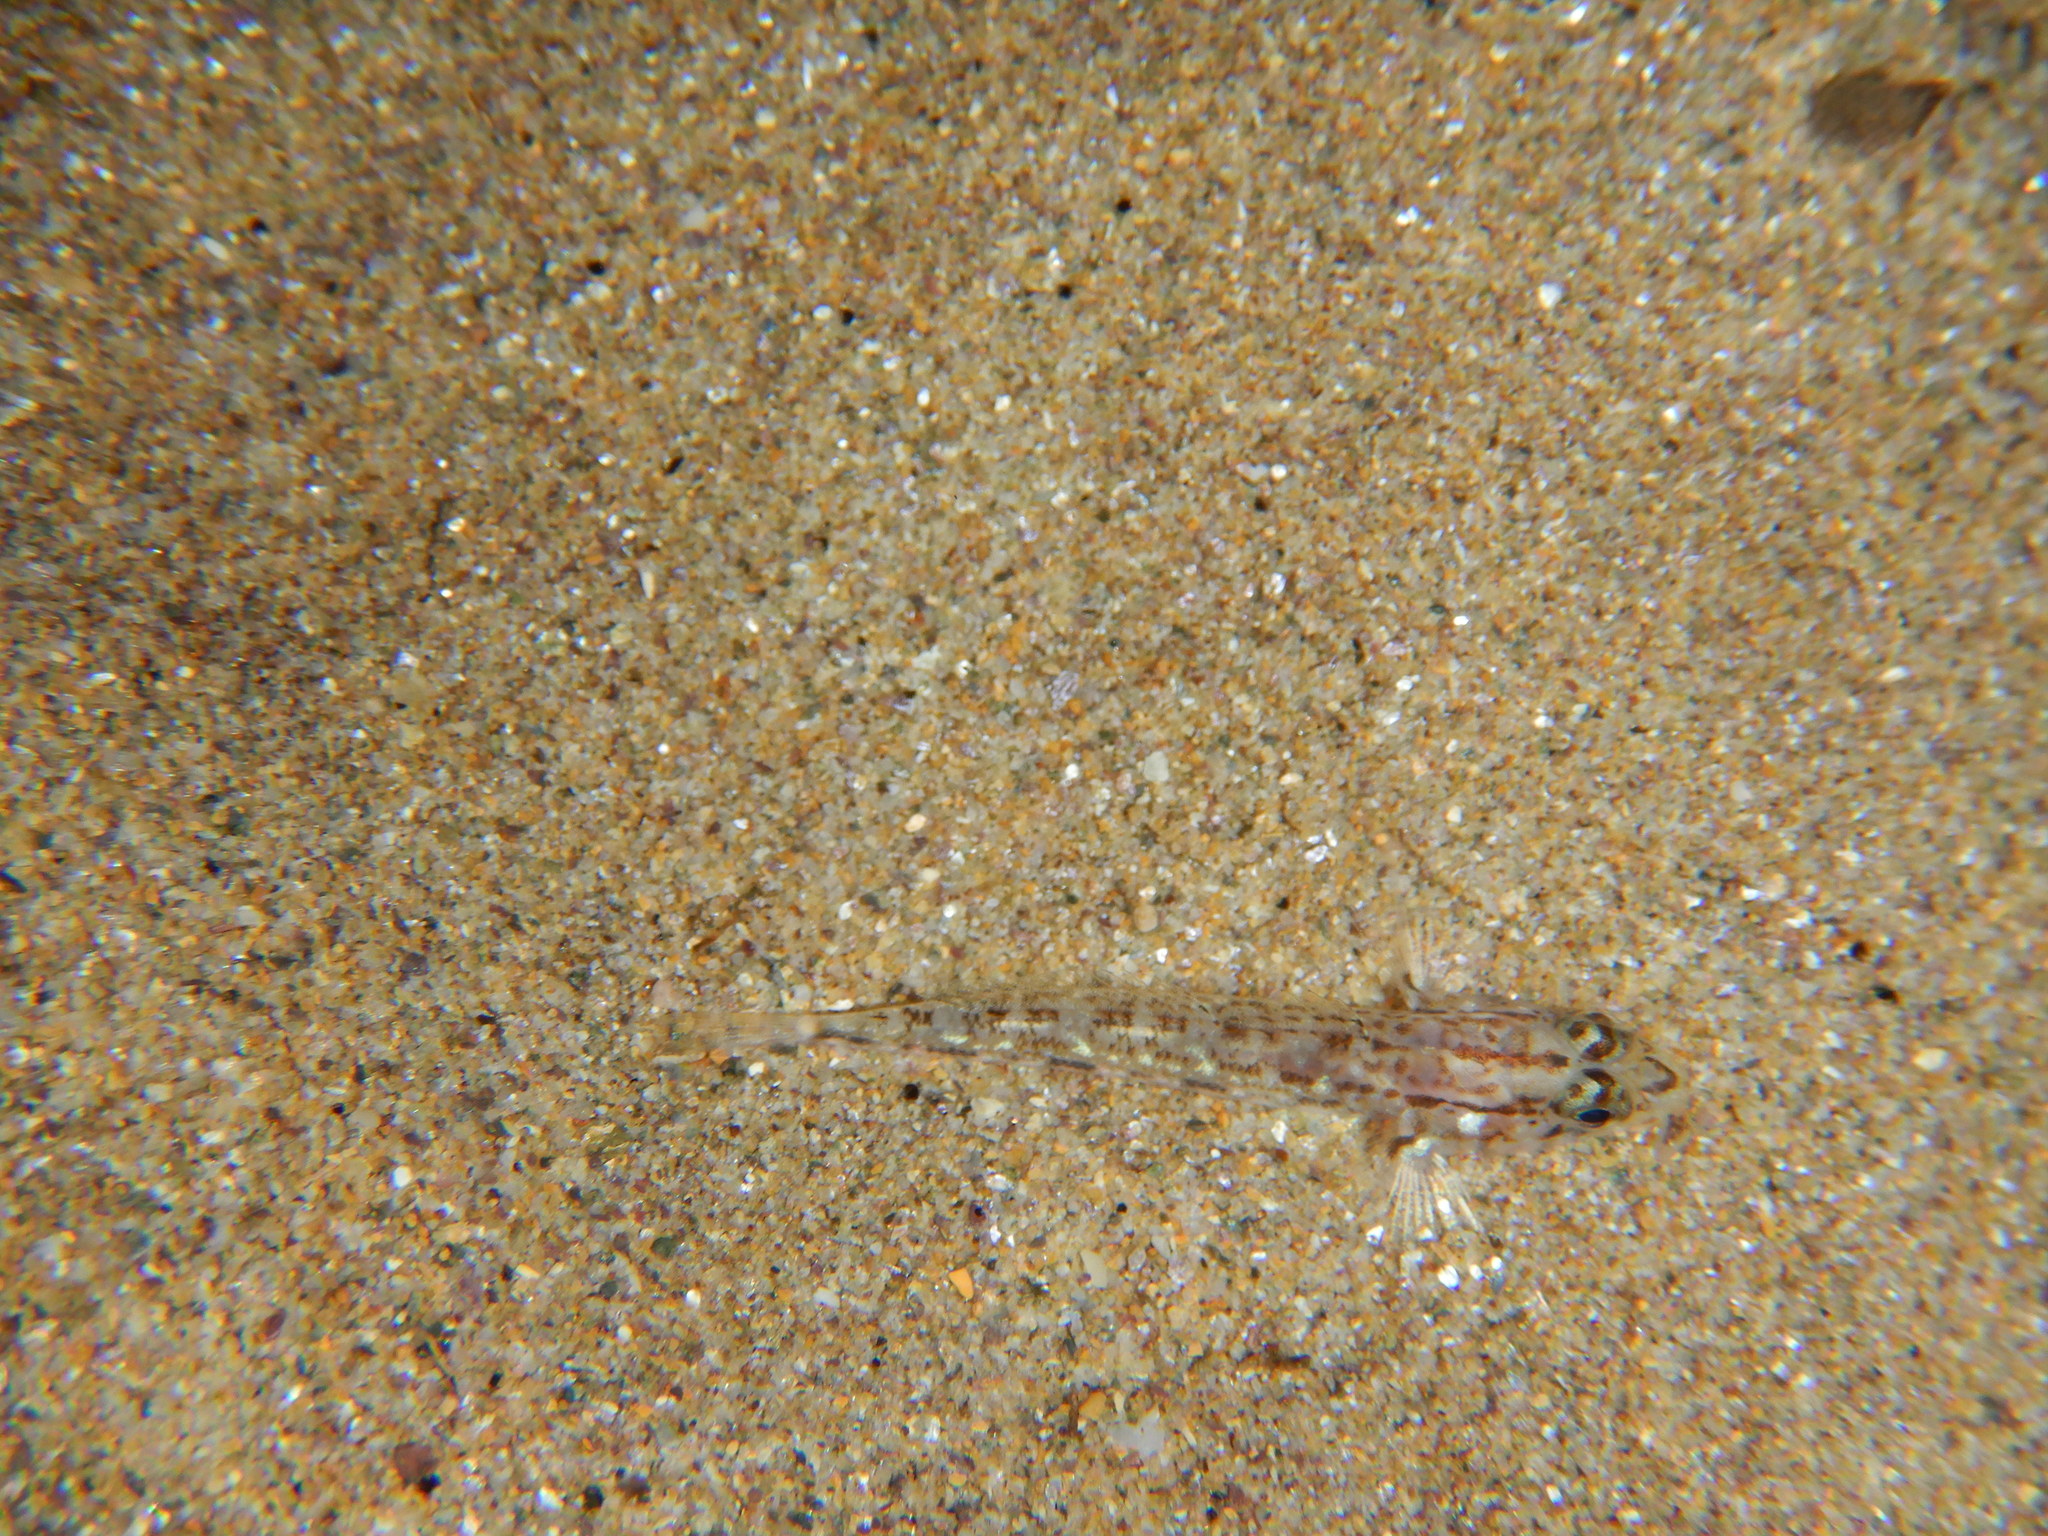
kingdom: Animalia
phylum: Chordata
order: Perciformes
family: Gobiidae
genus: Gobius
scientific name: Gobius geniporus
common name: Slender goby
